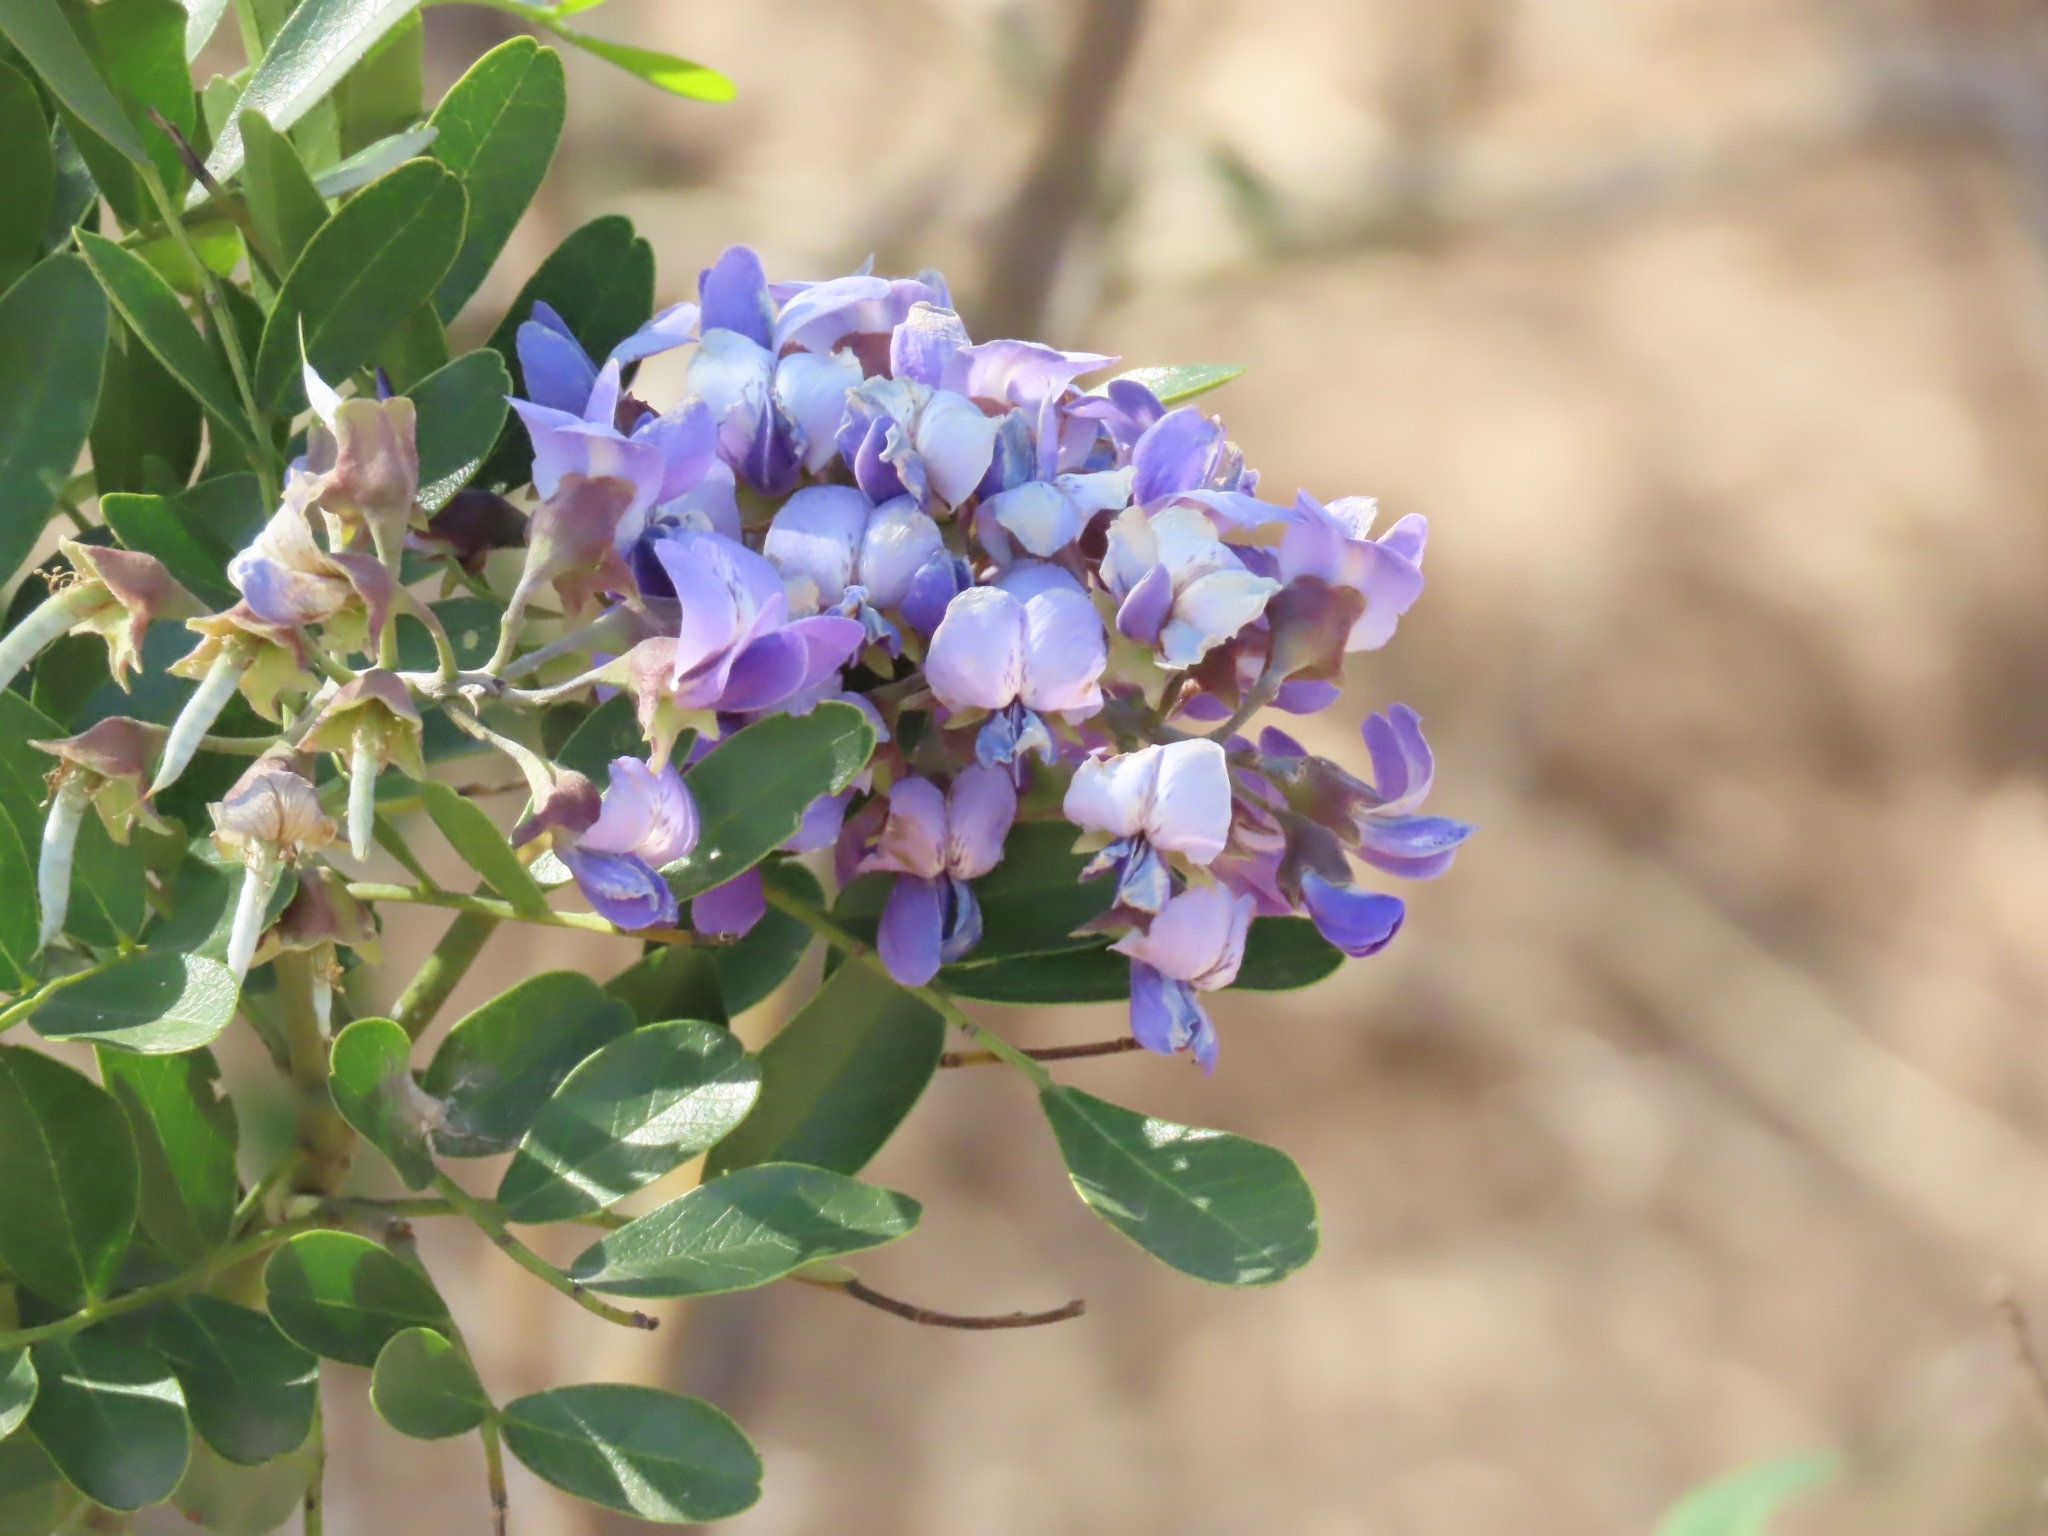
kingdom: Plantae
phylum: Tracheophyta
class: Magnoliopsida
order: Fabales
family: Fabaceae
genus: Dermatophyllum
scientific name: Dermatophyllum secundiflorum
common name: Texas-mountain-laurel
